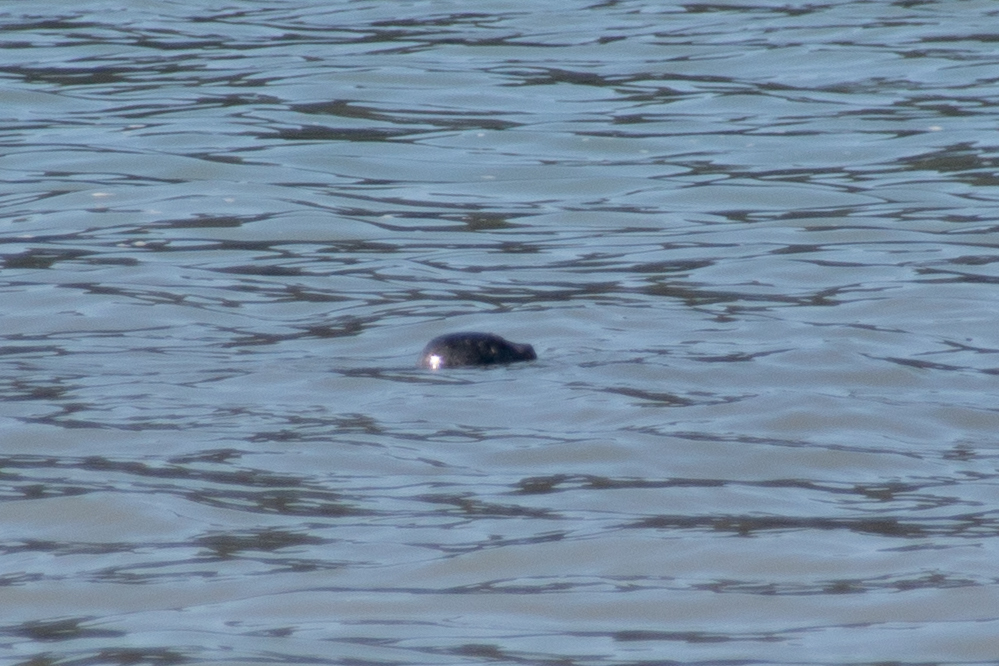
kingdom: Animalia
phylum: Chordata
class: Mammalia
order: Carnivora
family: Phocidae
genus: Phoca
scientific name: Phoca vitulina
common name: Harbor seal
